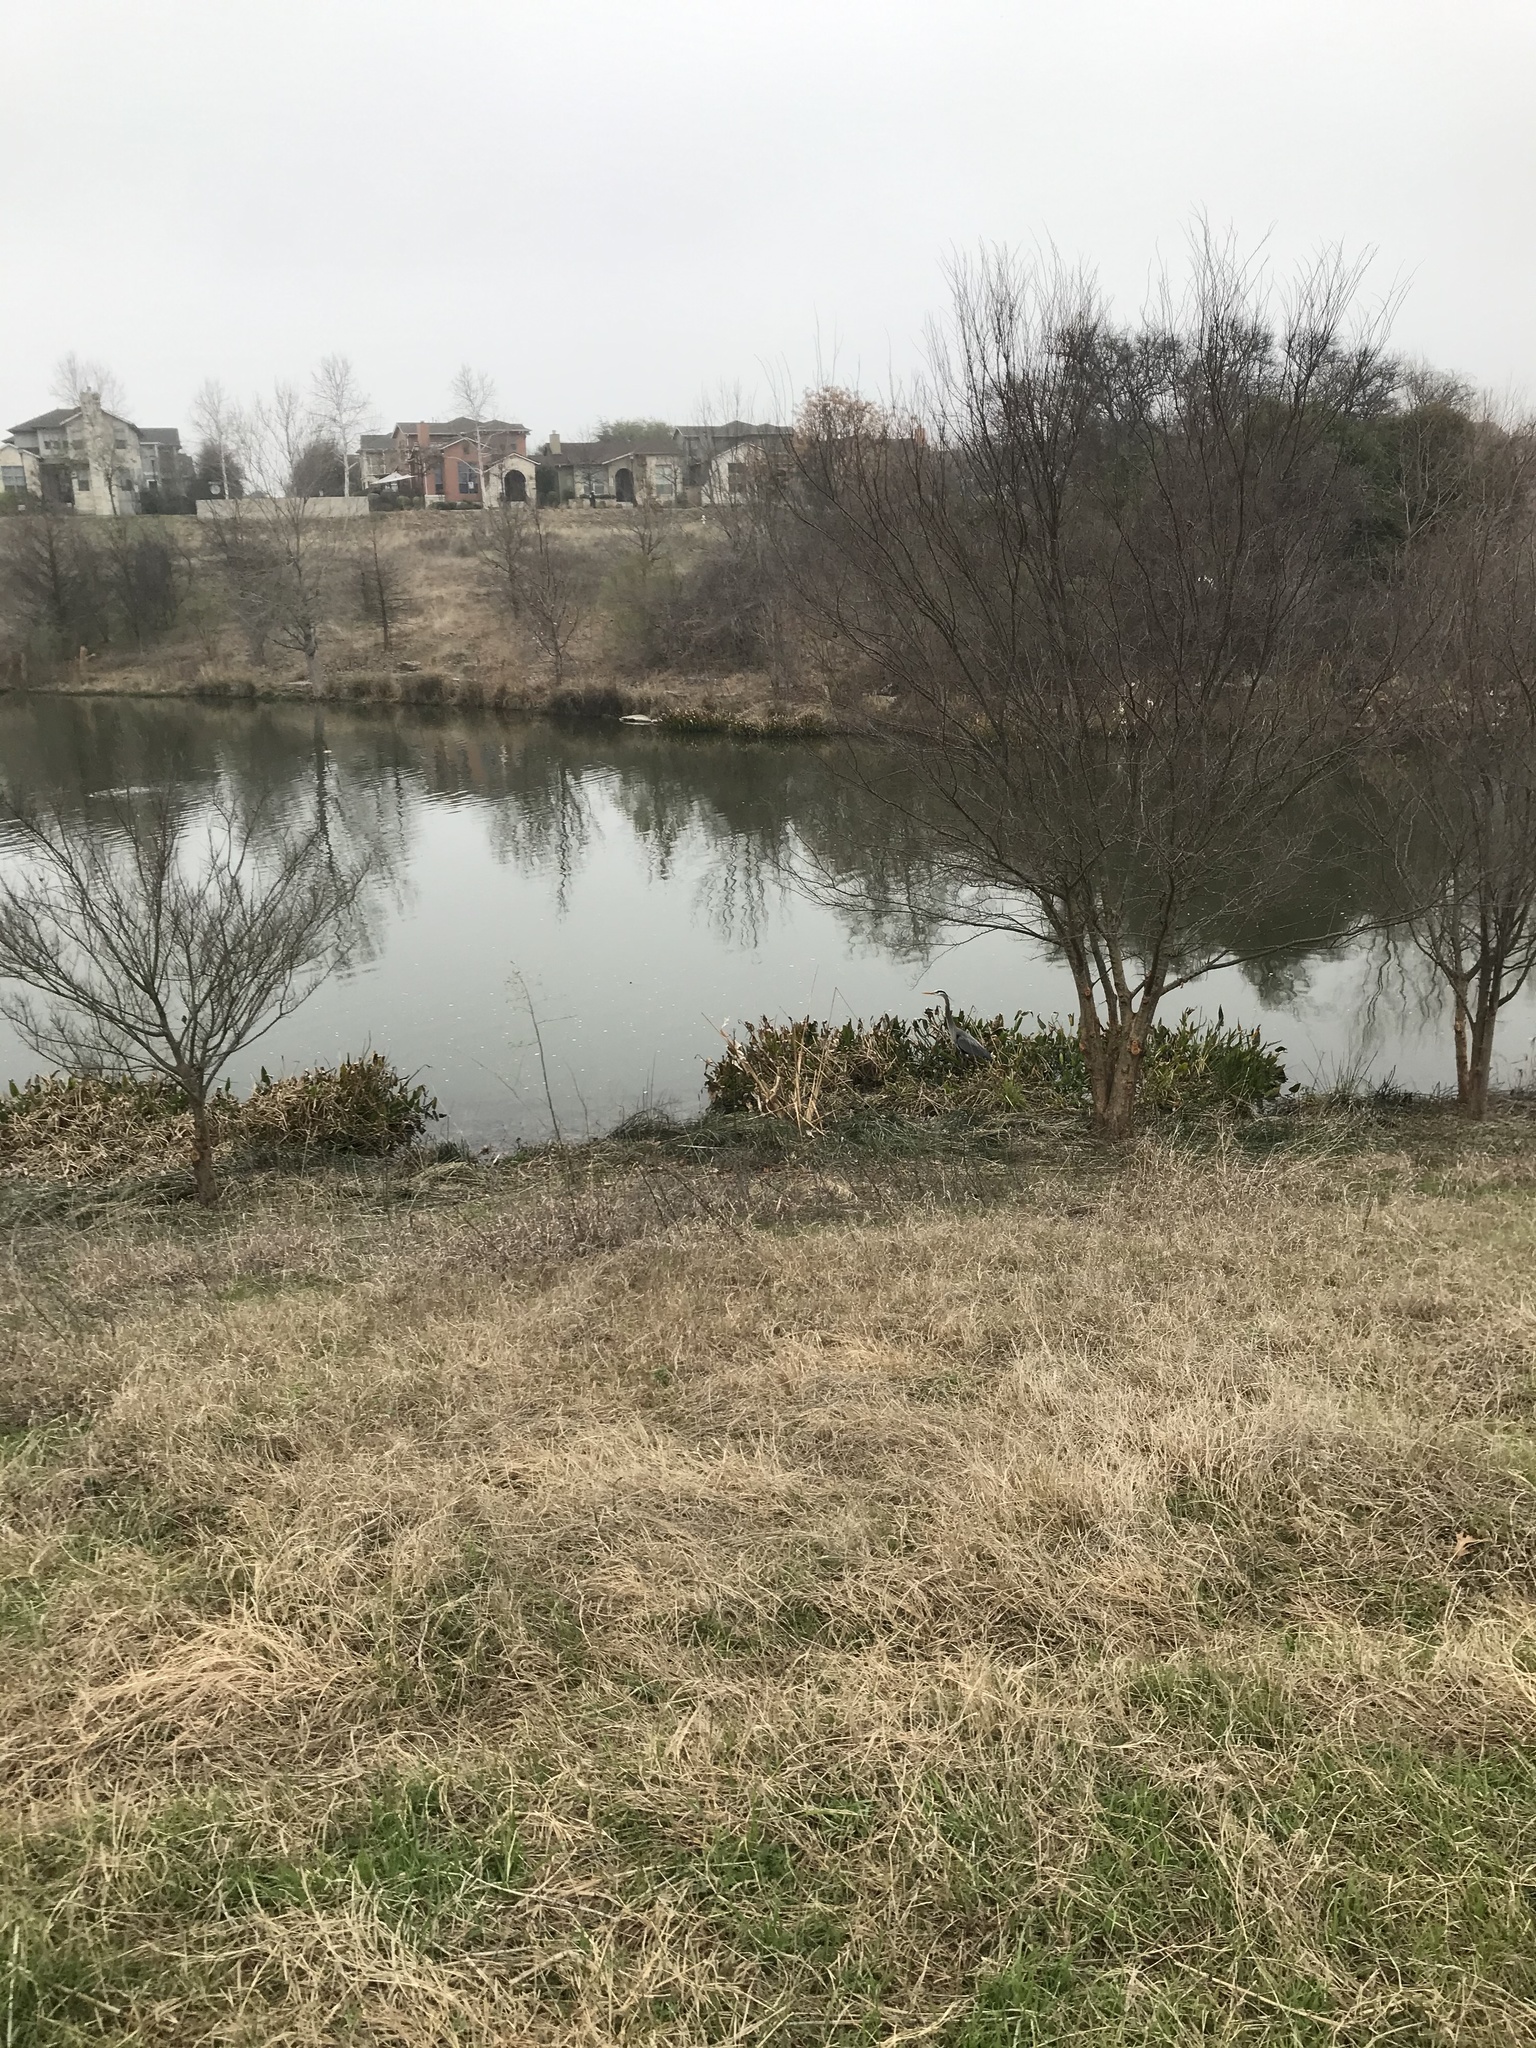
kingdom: Animalia
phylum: Chordata
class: Aves
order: Pelecaniformes
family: Ardeidae
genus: Ardea
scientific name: Ardea herodias
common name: Great blue heron
